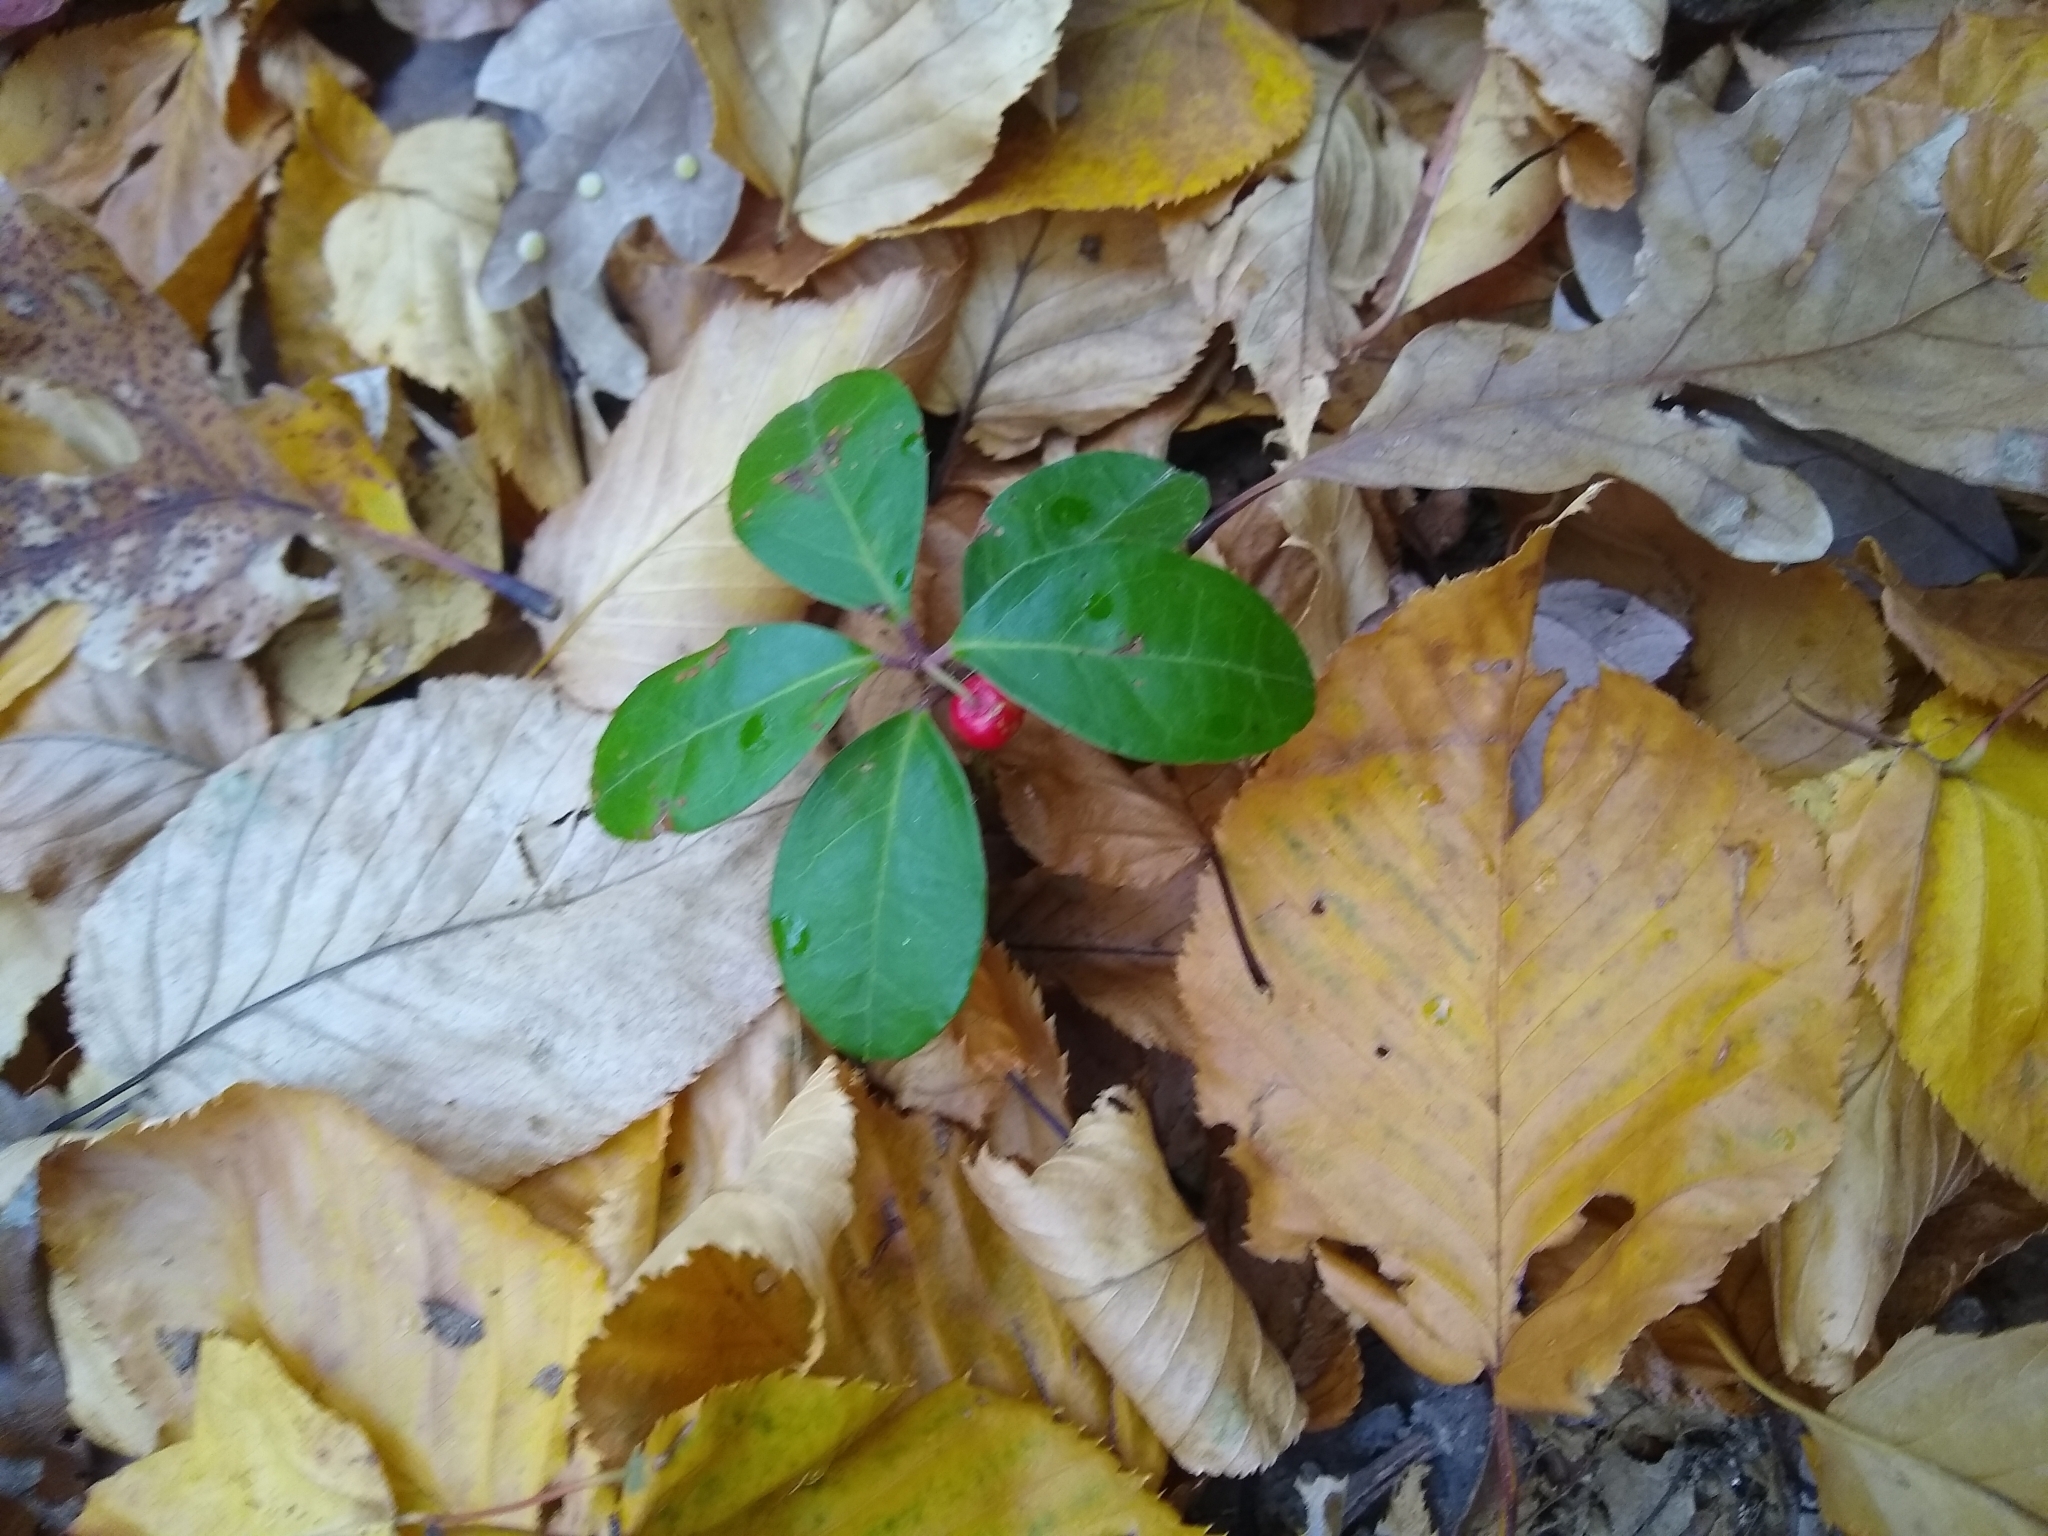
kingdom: Plantae
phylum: Tracheophyta
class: Magnoliopsida
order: Ericales
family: Ericaceae
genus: Gaultheria
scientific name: Gaultheria procumbens
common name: Checkerberry
